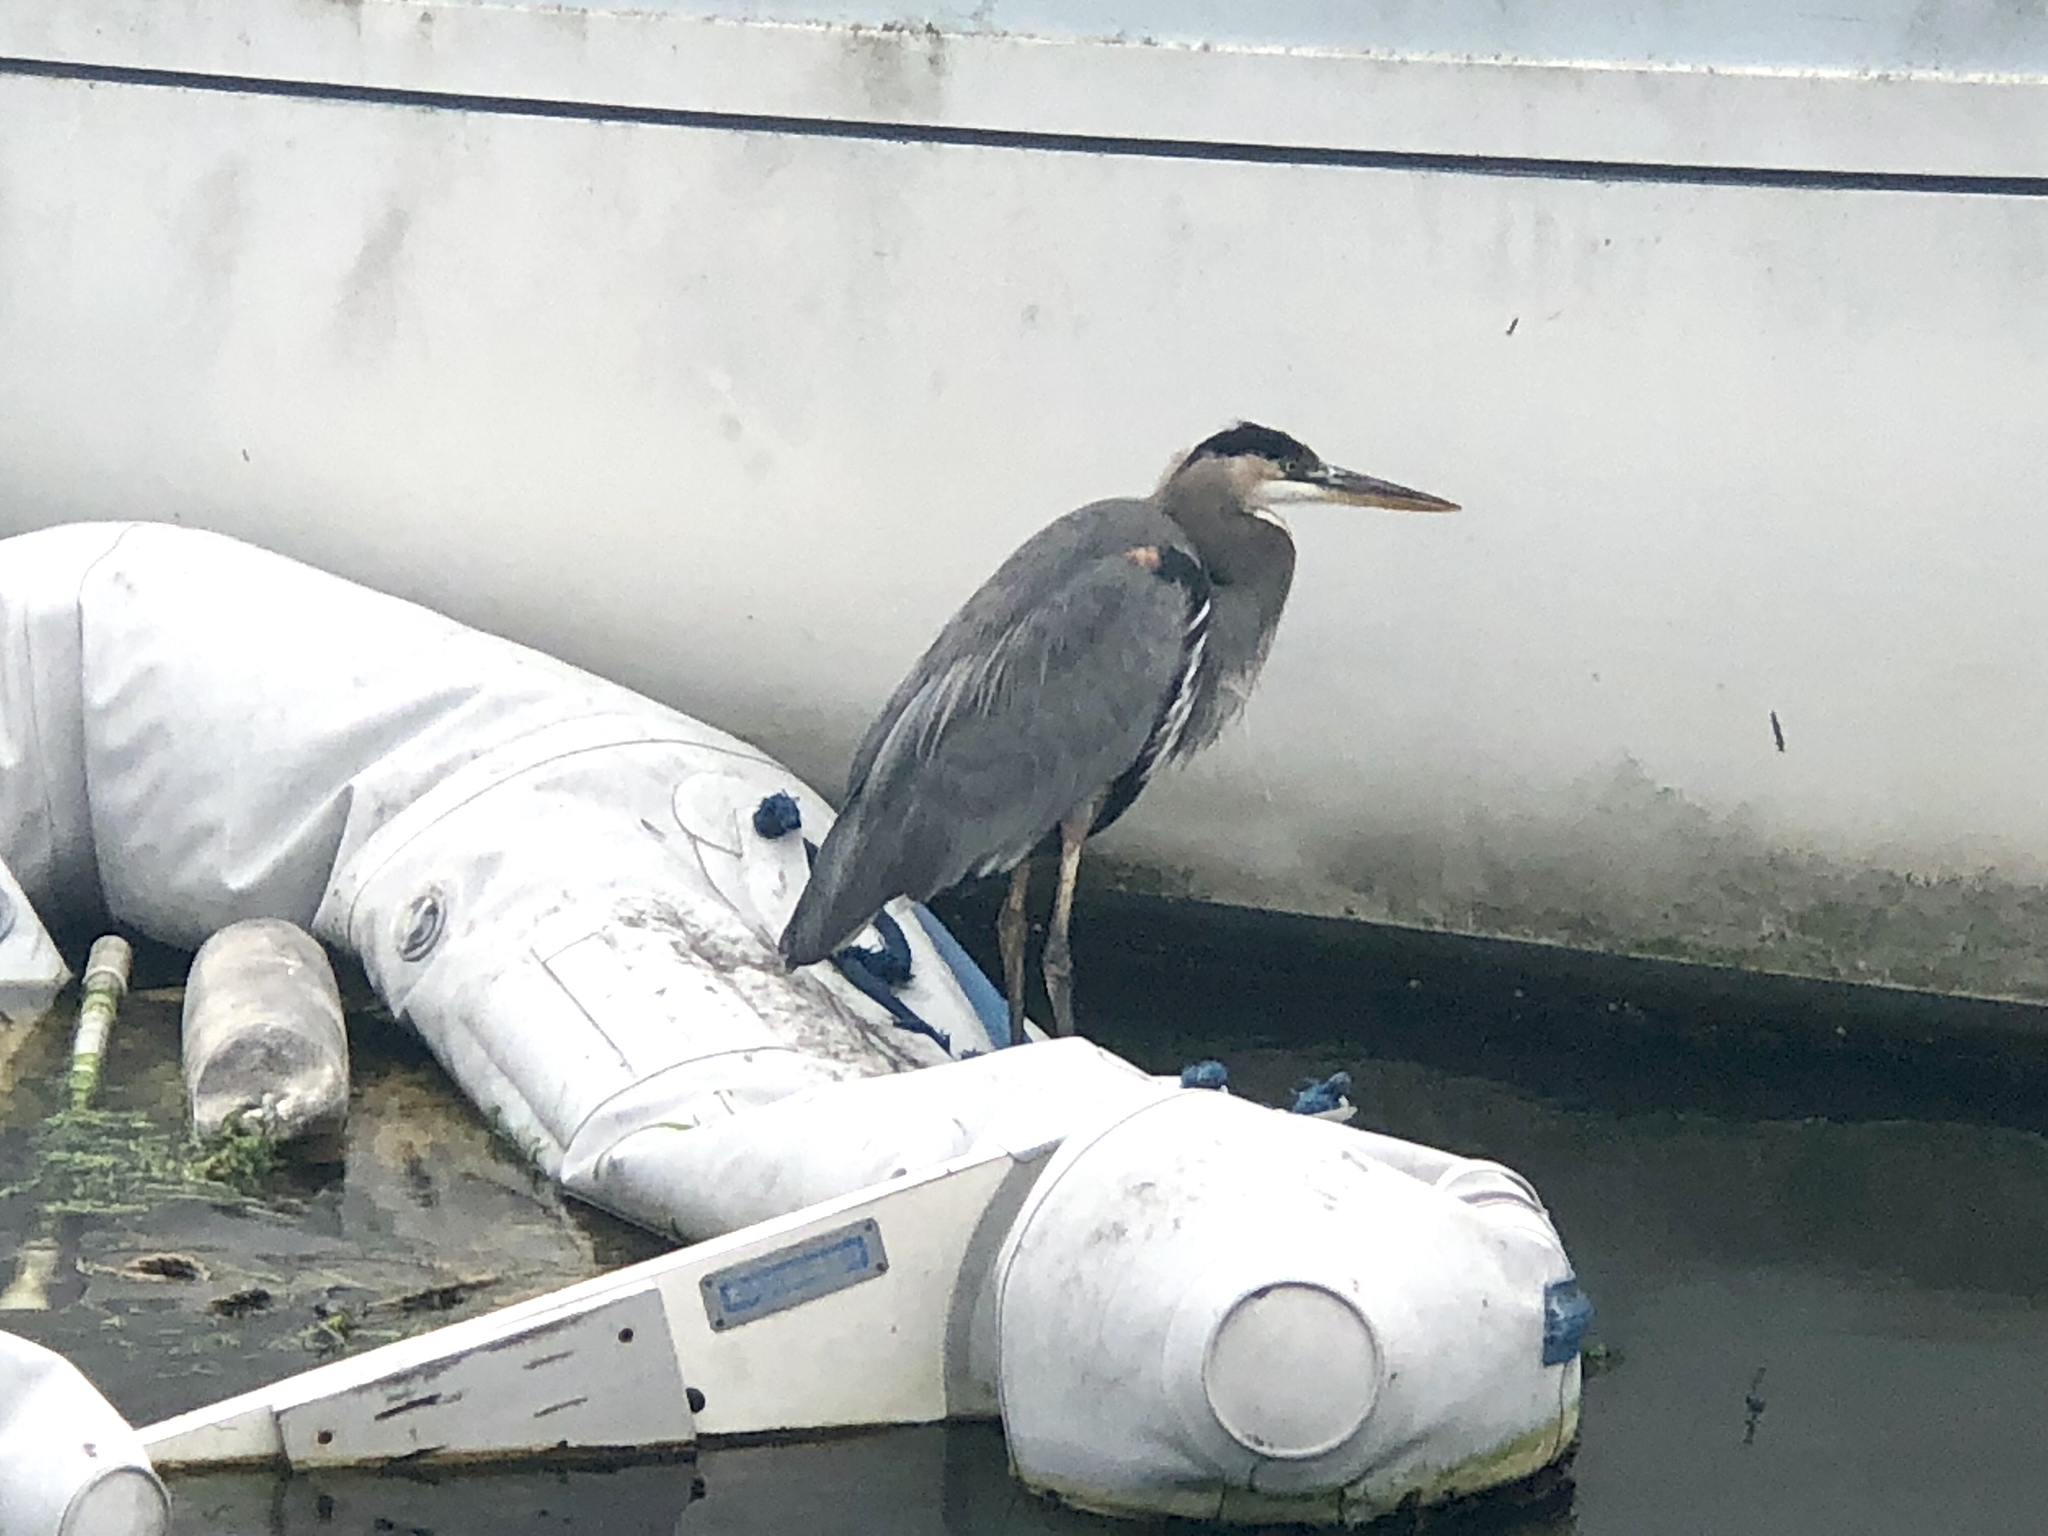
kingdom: Animalia
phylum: Chordata
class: Aves
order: Pelecaniformes
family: Ardeidae
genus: Ardea
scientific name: Ardea herodias
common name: Great blue heron
